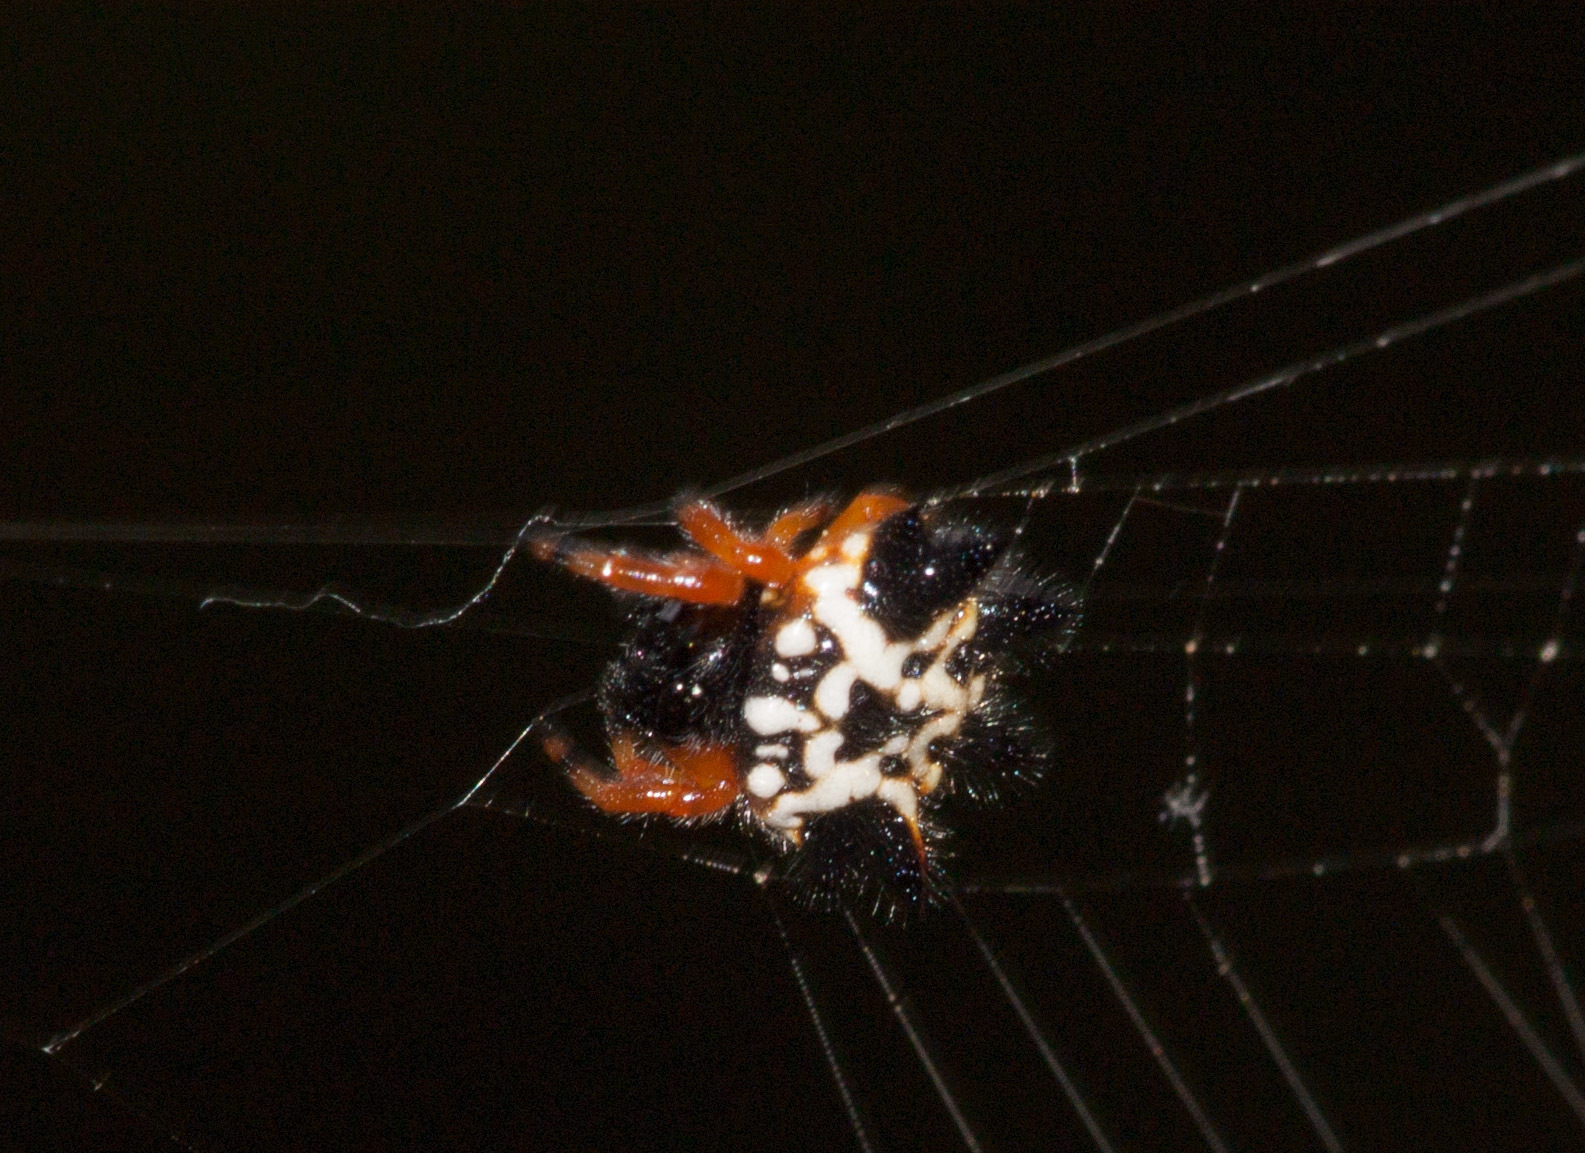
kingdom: Animalia
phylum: Arthropoda
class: Arachnida
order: Araneae
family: Araneidae
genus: Austracantha
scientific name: Austracantha minax
